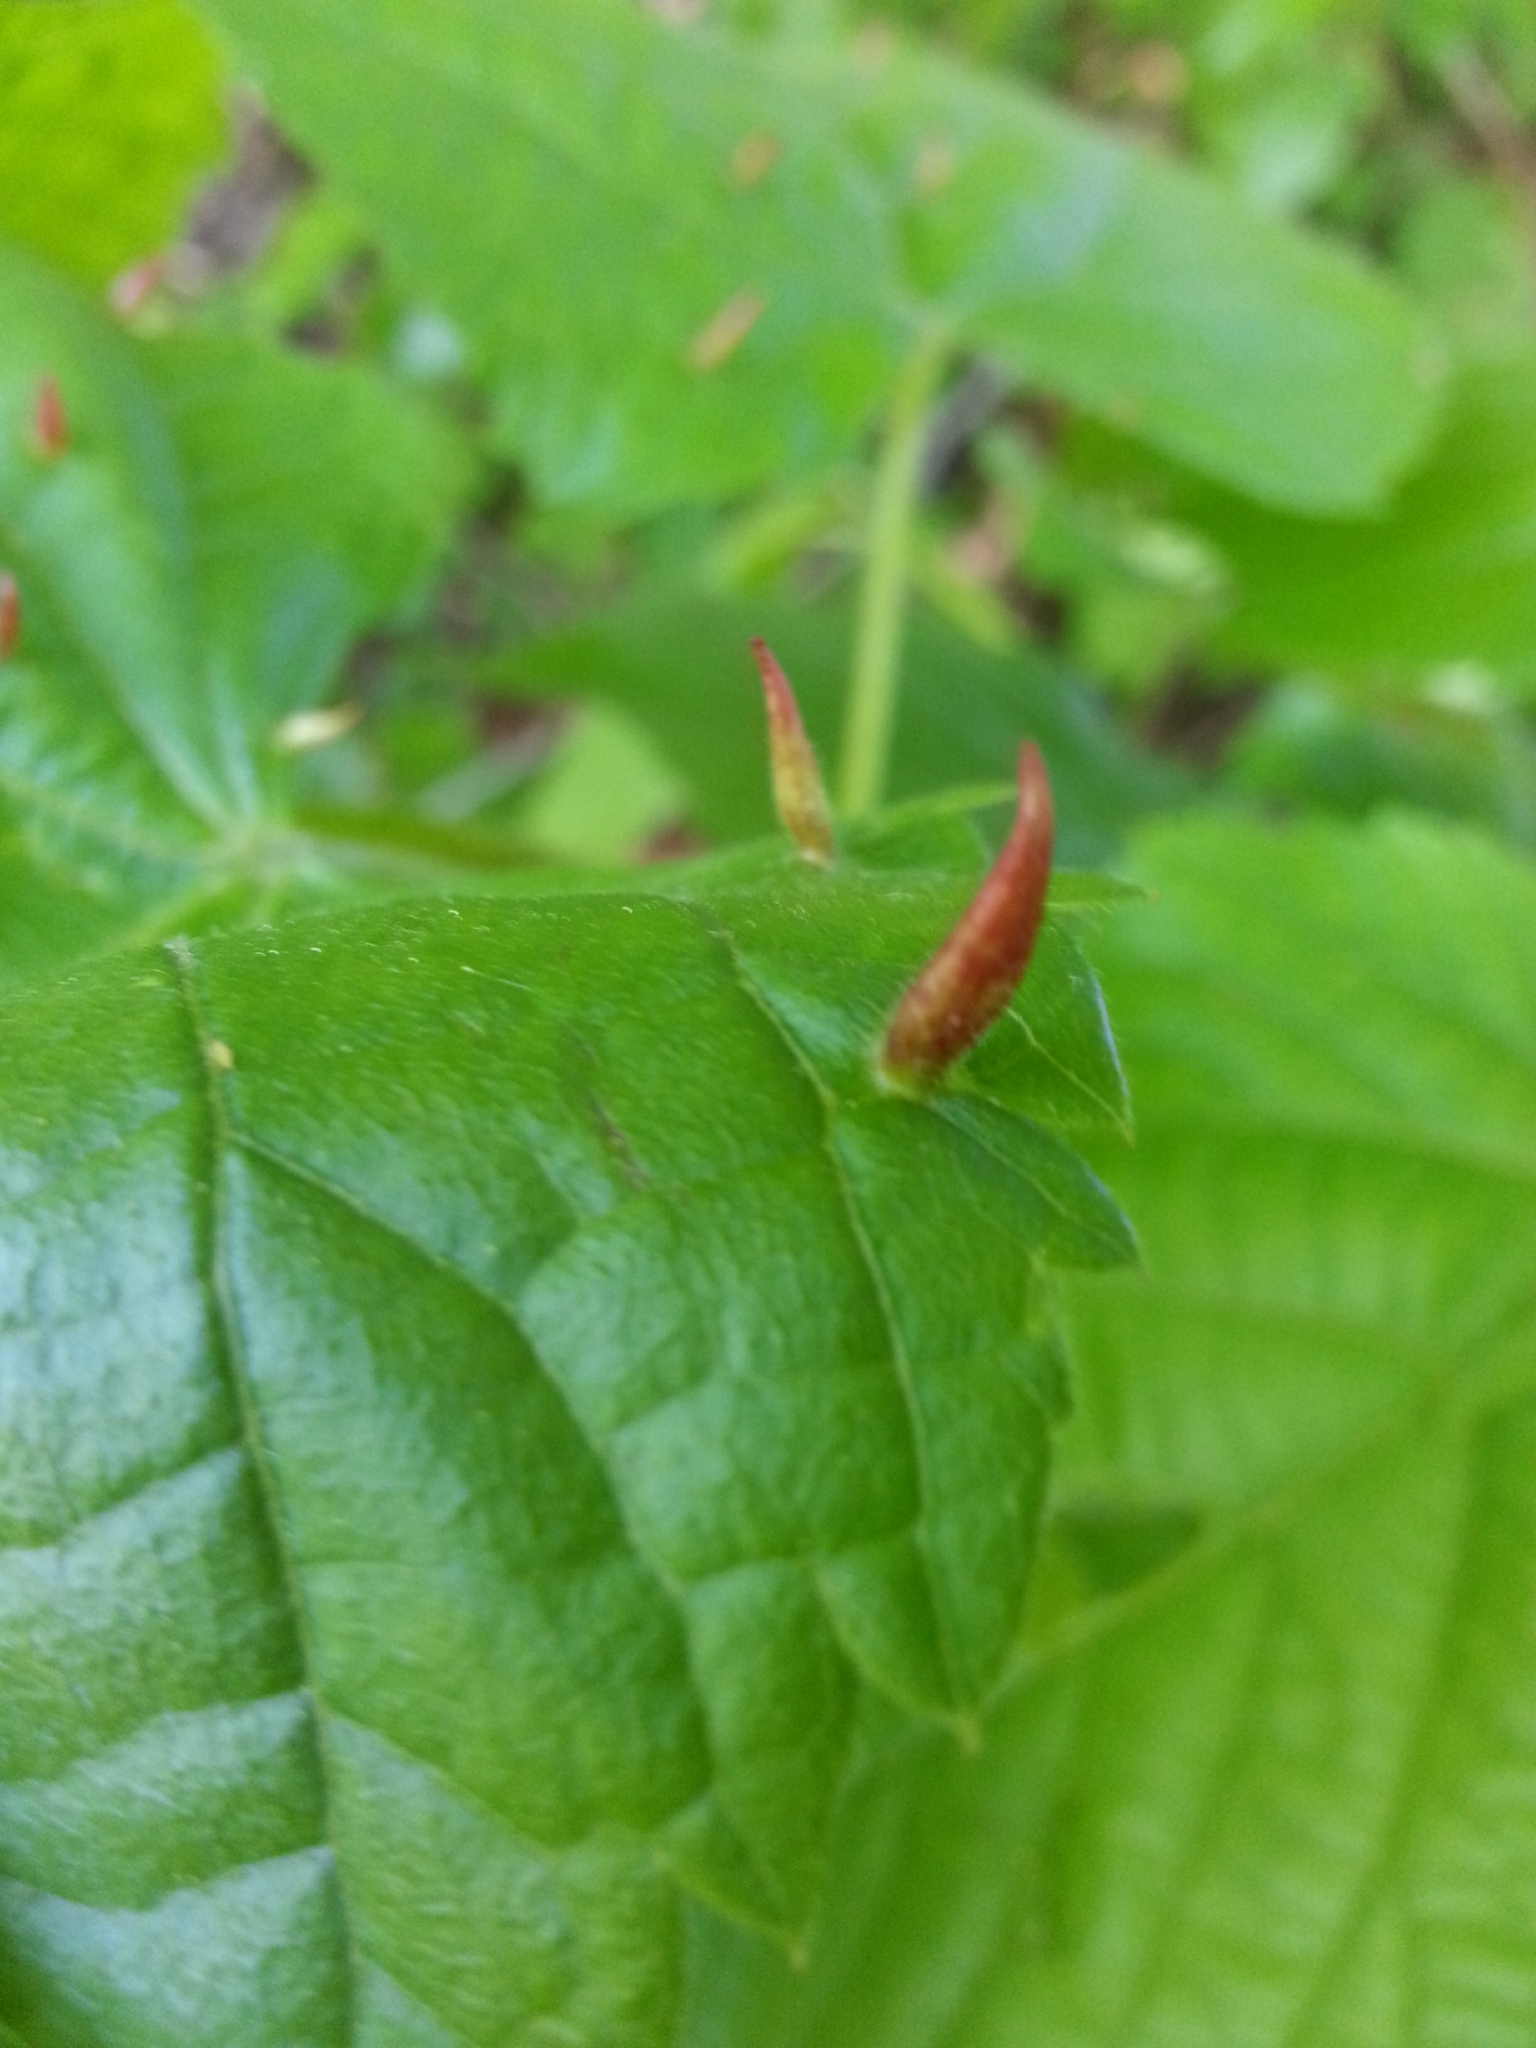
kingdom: Animalia
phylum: Arthropoda
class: Arachnida
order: Trombidiformes
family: Eriophyidae
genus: Eriophyes
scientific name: Eriophyes tiliae
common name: Red nail gall mite
